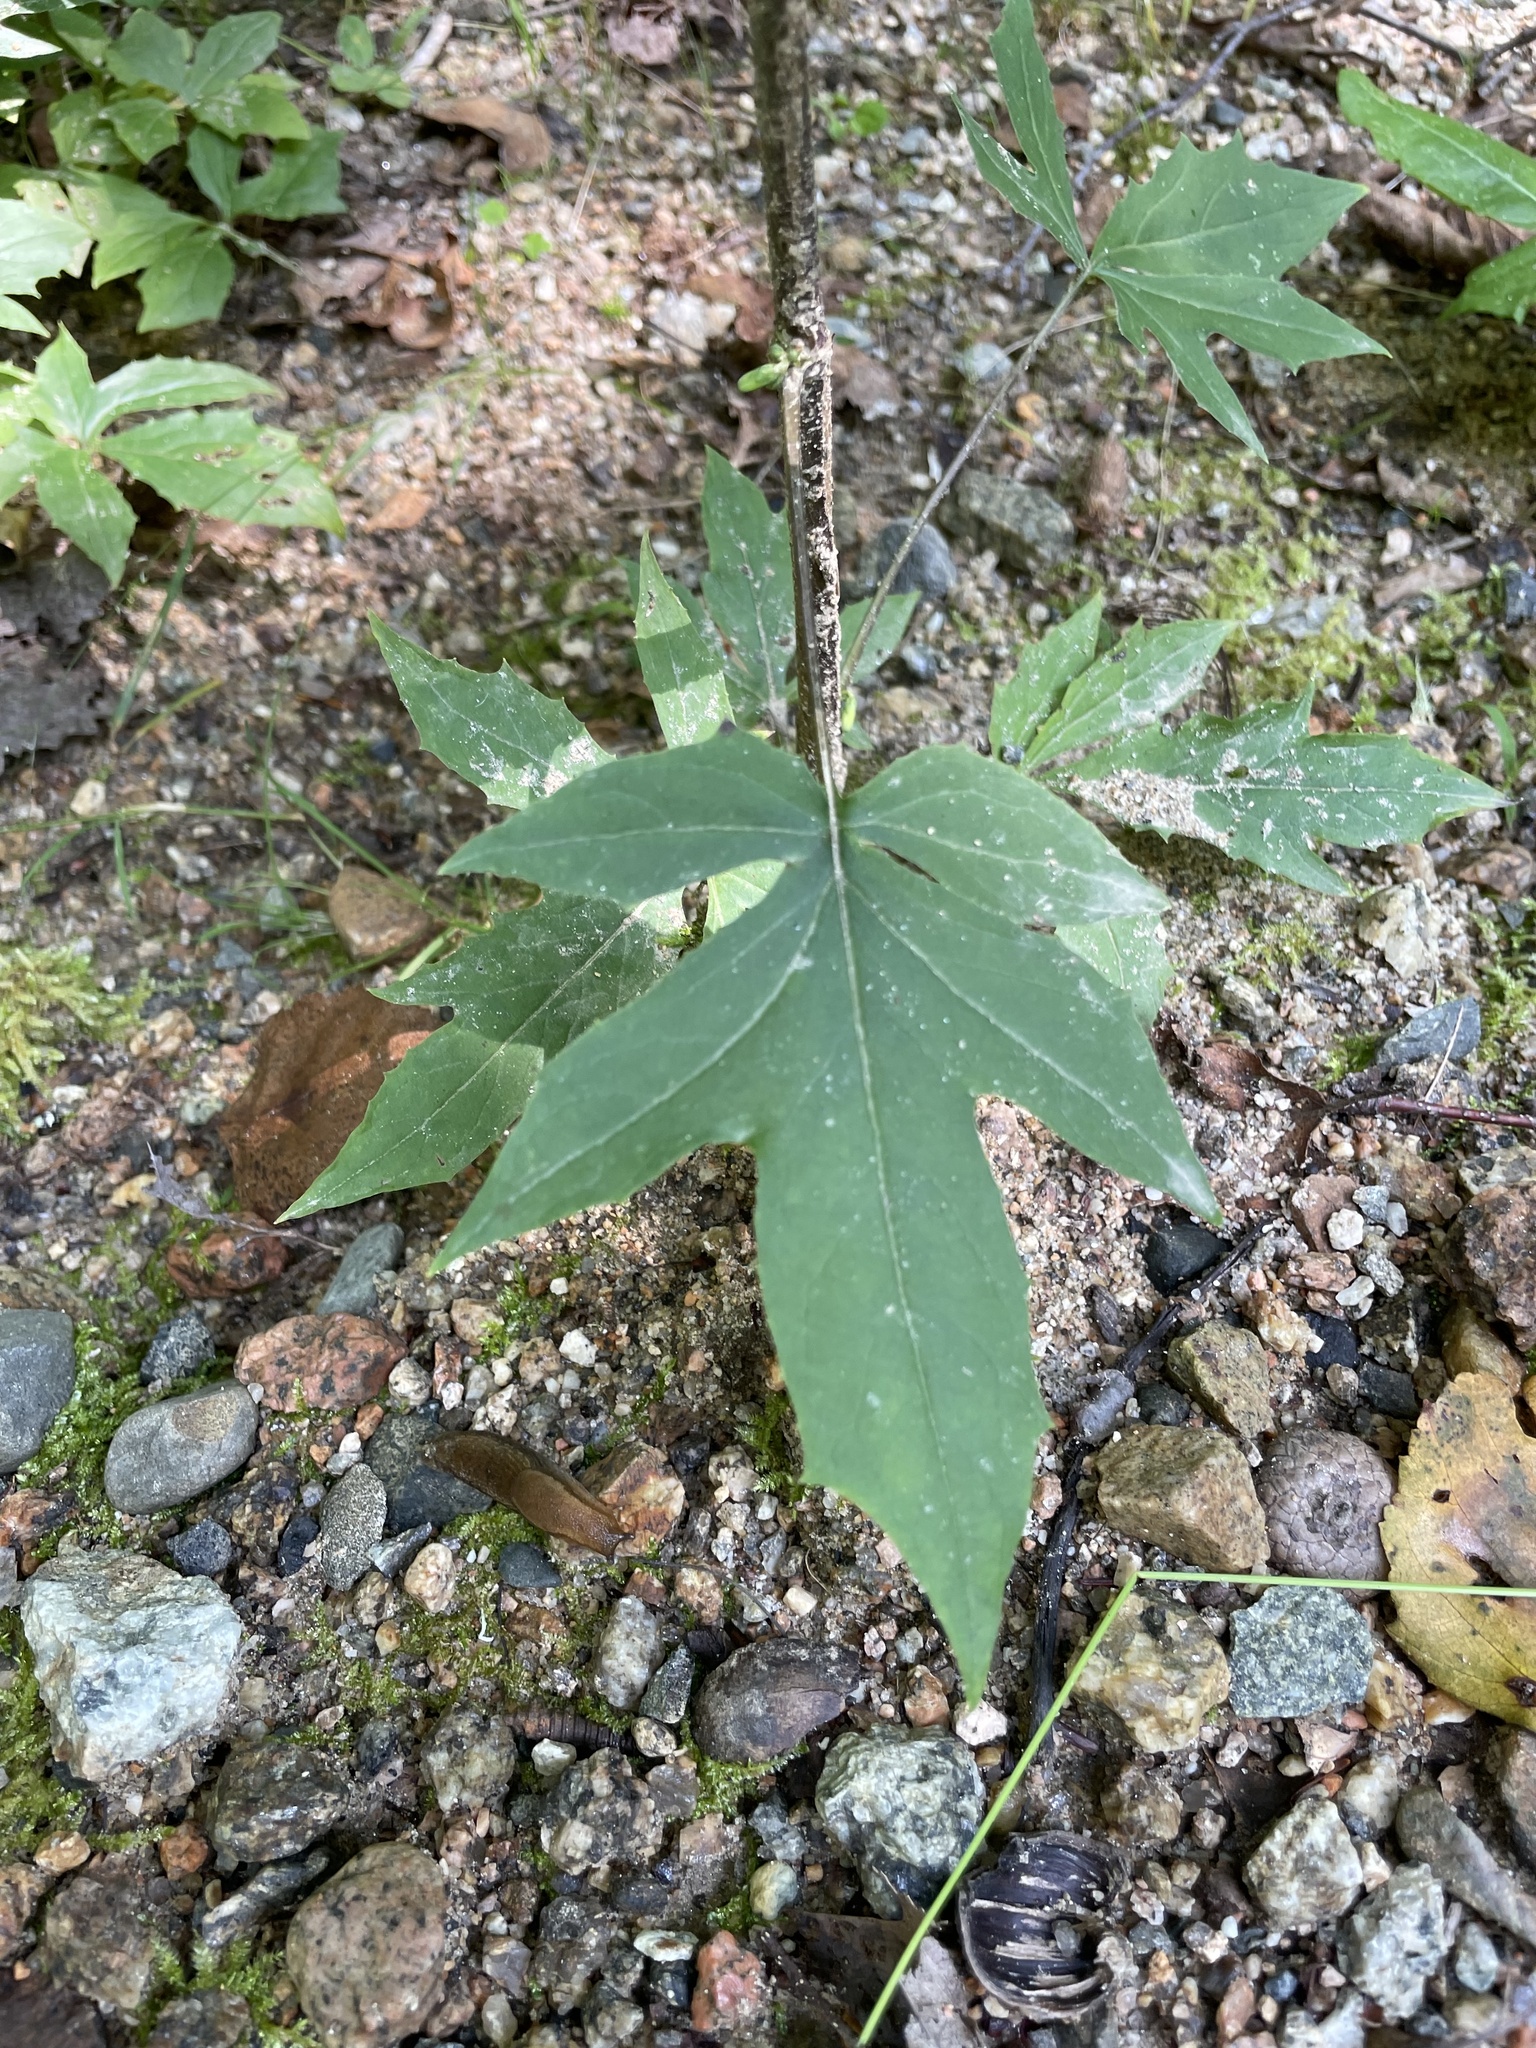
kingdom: Plantae
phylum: Tracheophyta
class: Magnoliopsida
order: Asterales
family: Asteraceae
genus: Nabalus
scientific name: Nabalus altissima
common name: Tall rattlesnakeroot
